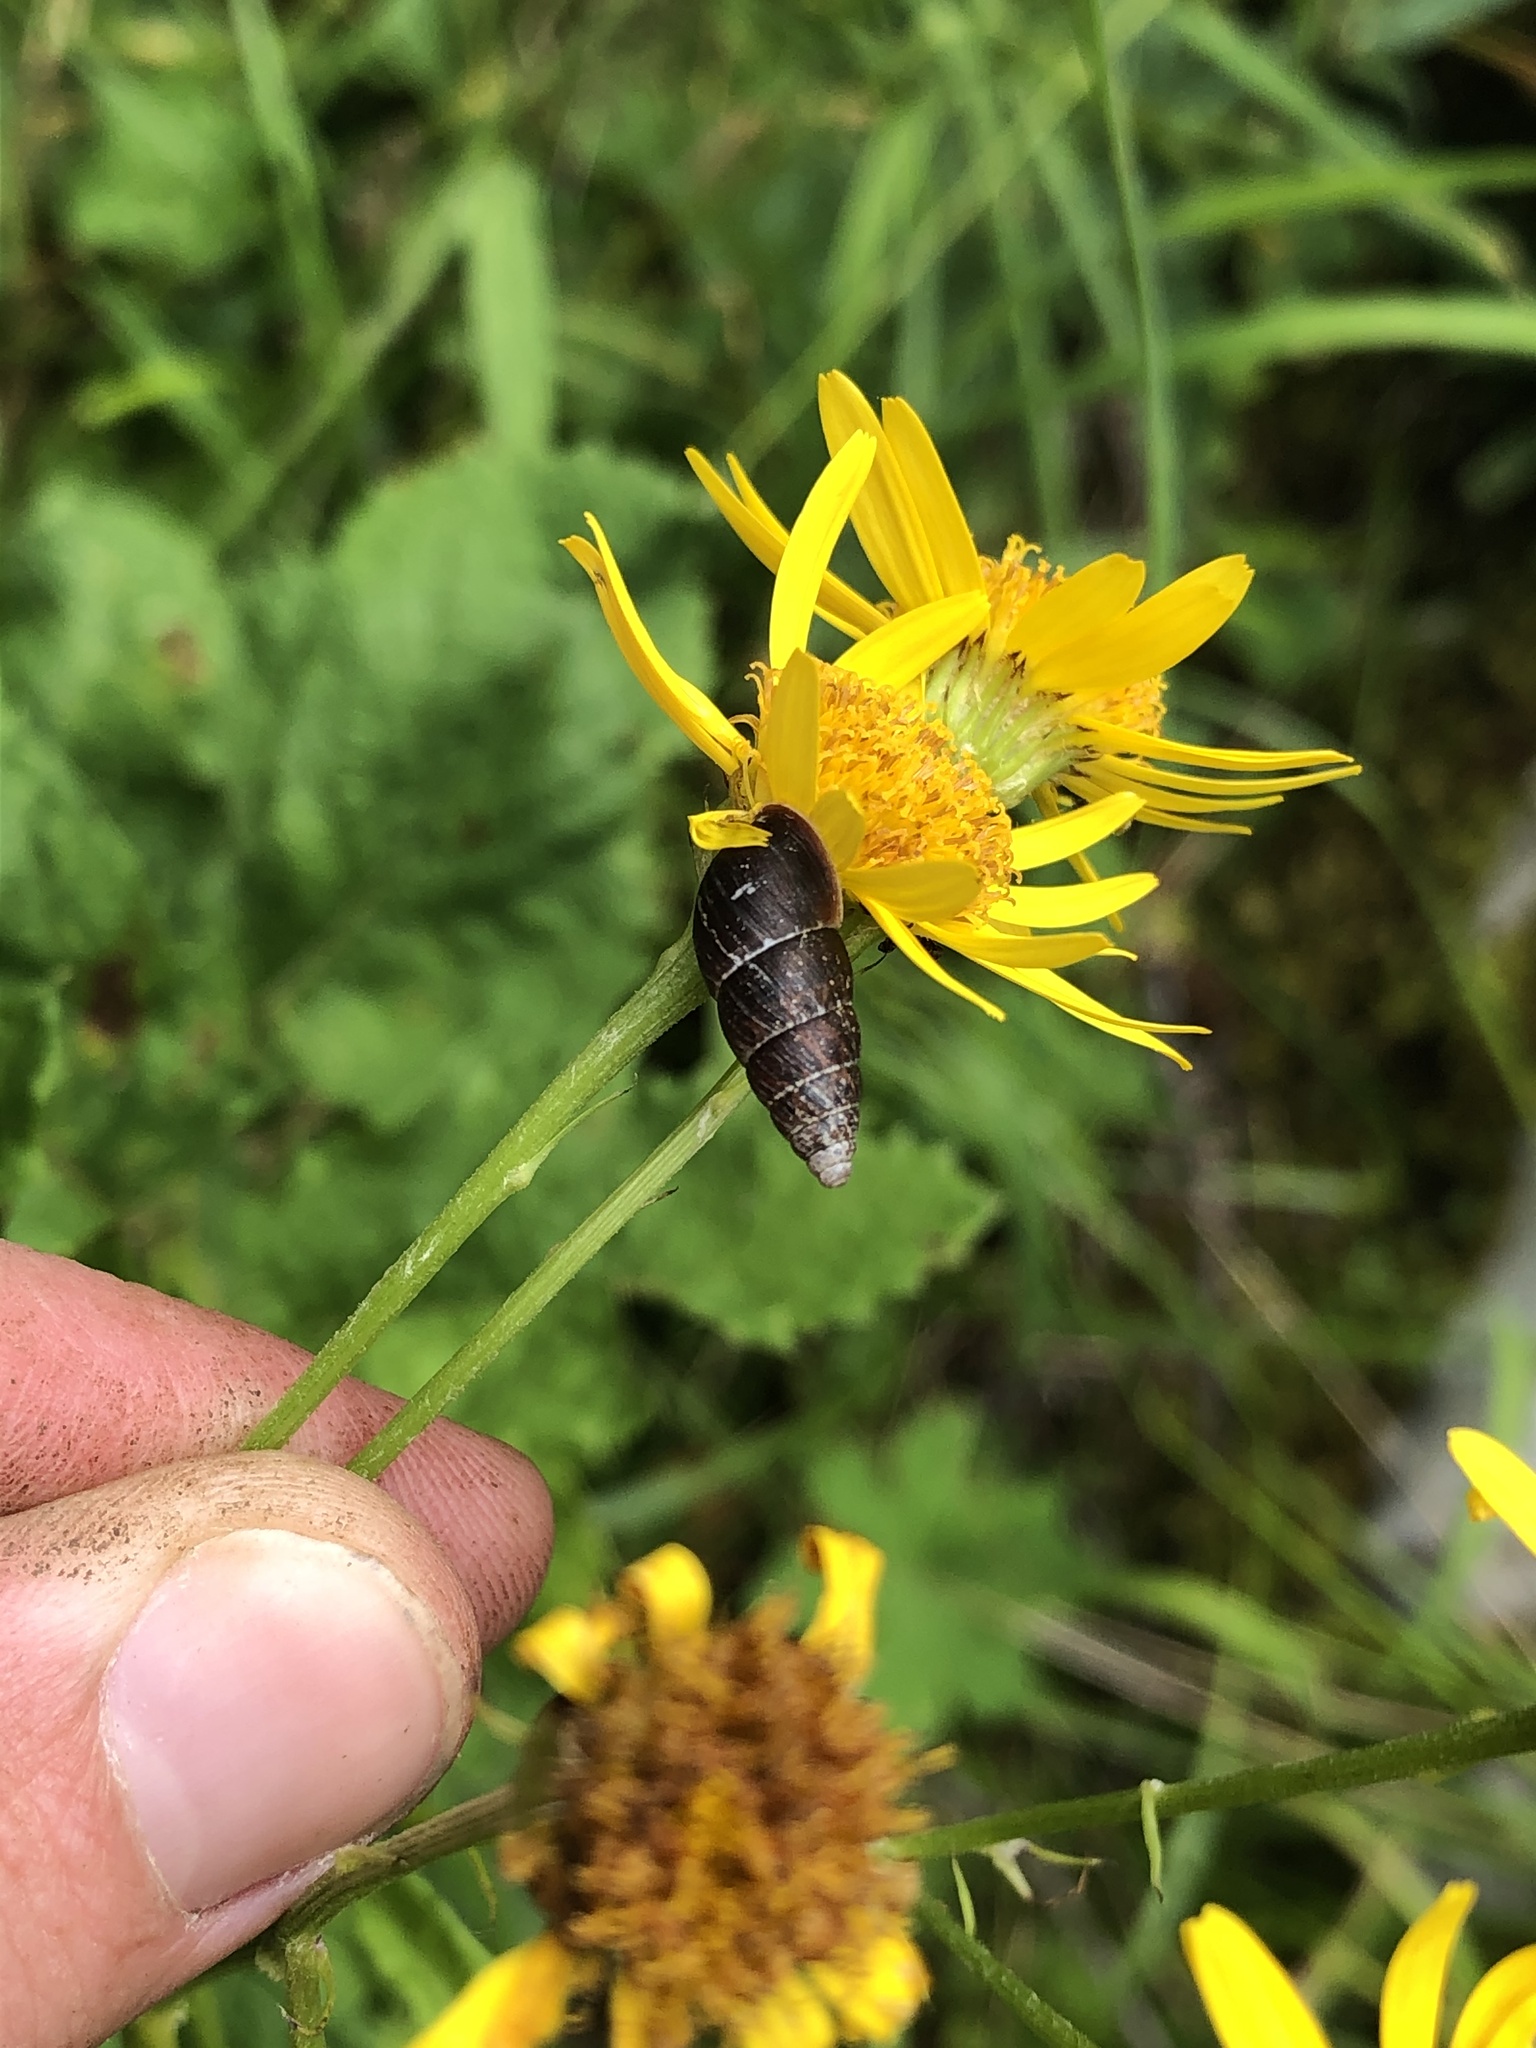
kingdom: Animalia
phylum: Mollusca
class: Gastropoda
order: Stylommatophora
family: Enidae
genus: Ena
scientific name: Ena montana
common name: Mountain bulin
